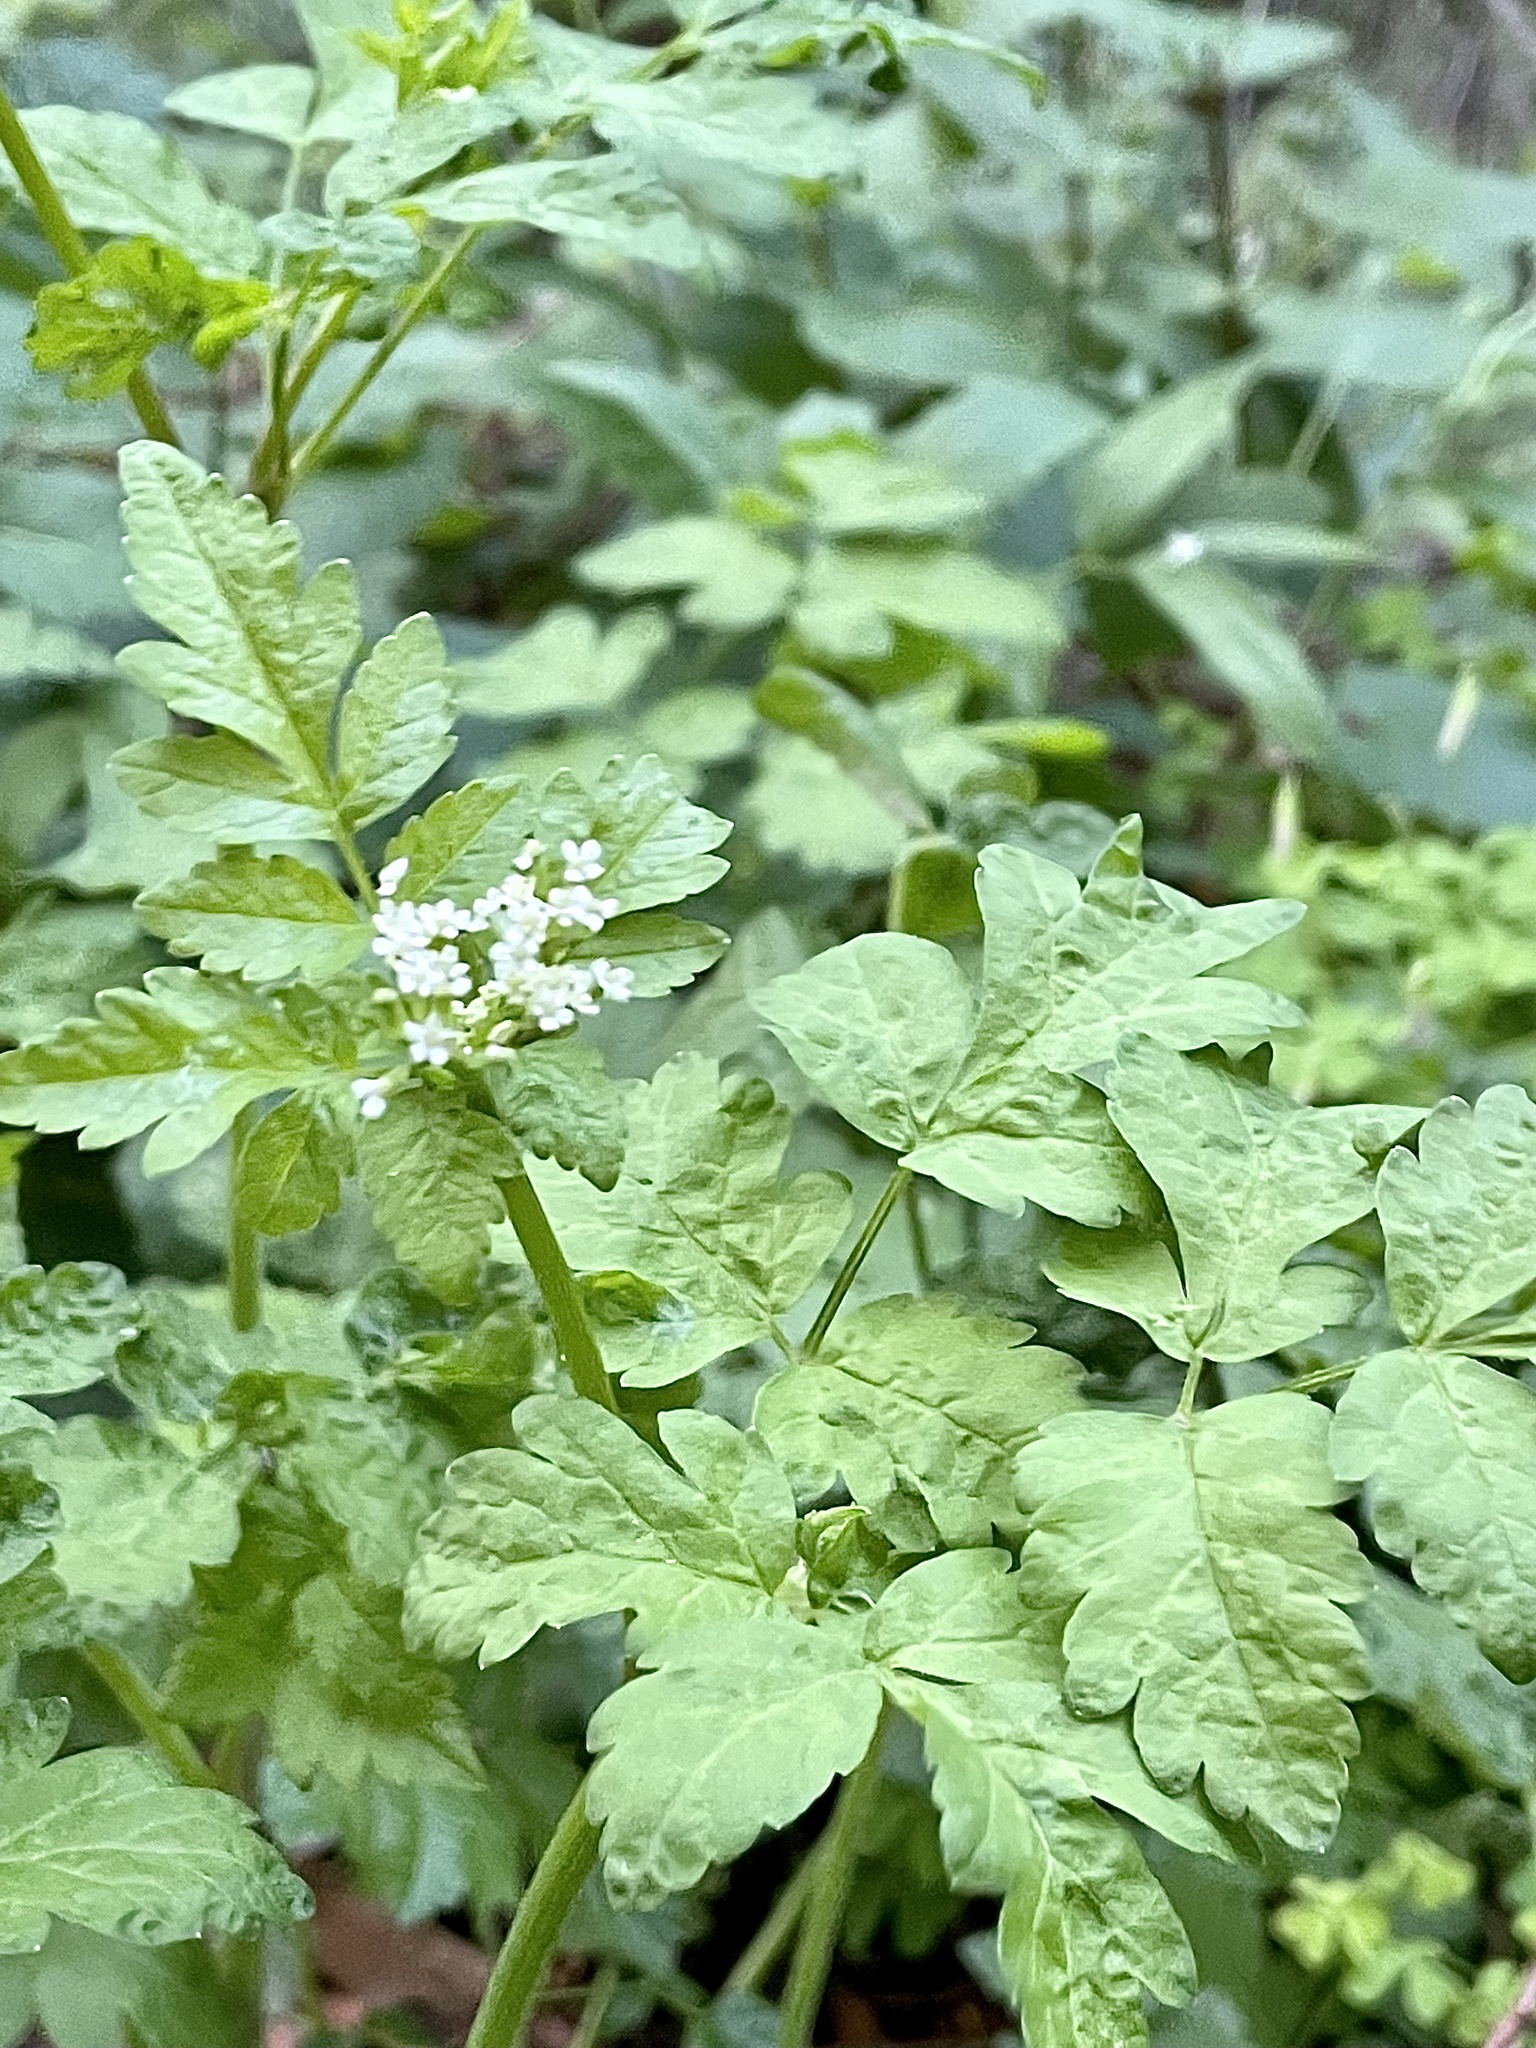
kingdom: Plantae
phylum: Tracheophyta
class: Magnoliopsida
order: Apiales
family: Apiaceae
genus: Osmorhiza
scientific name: Osmorhiza berteroi
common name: Mountain sweet cicely
